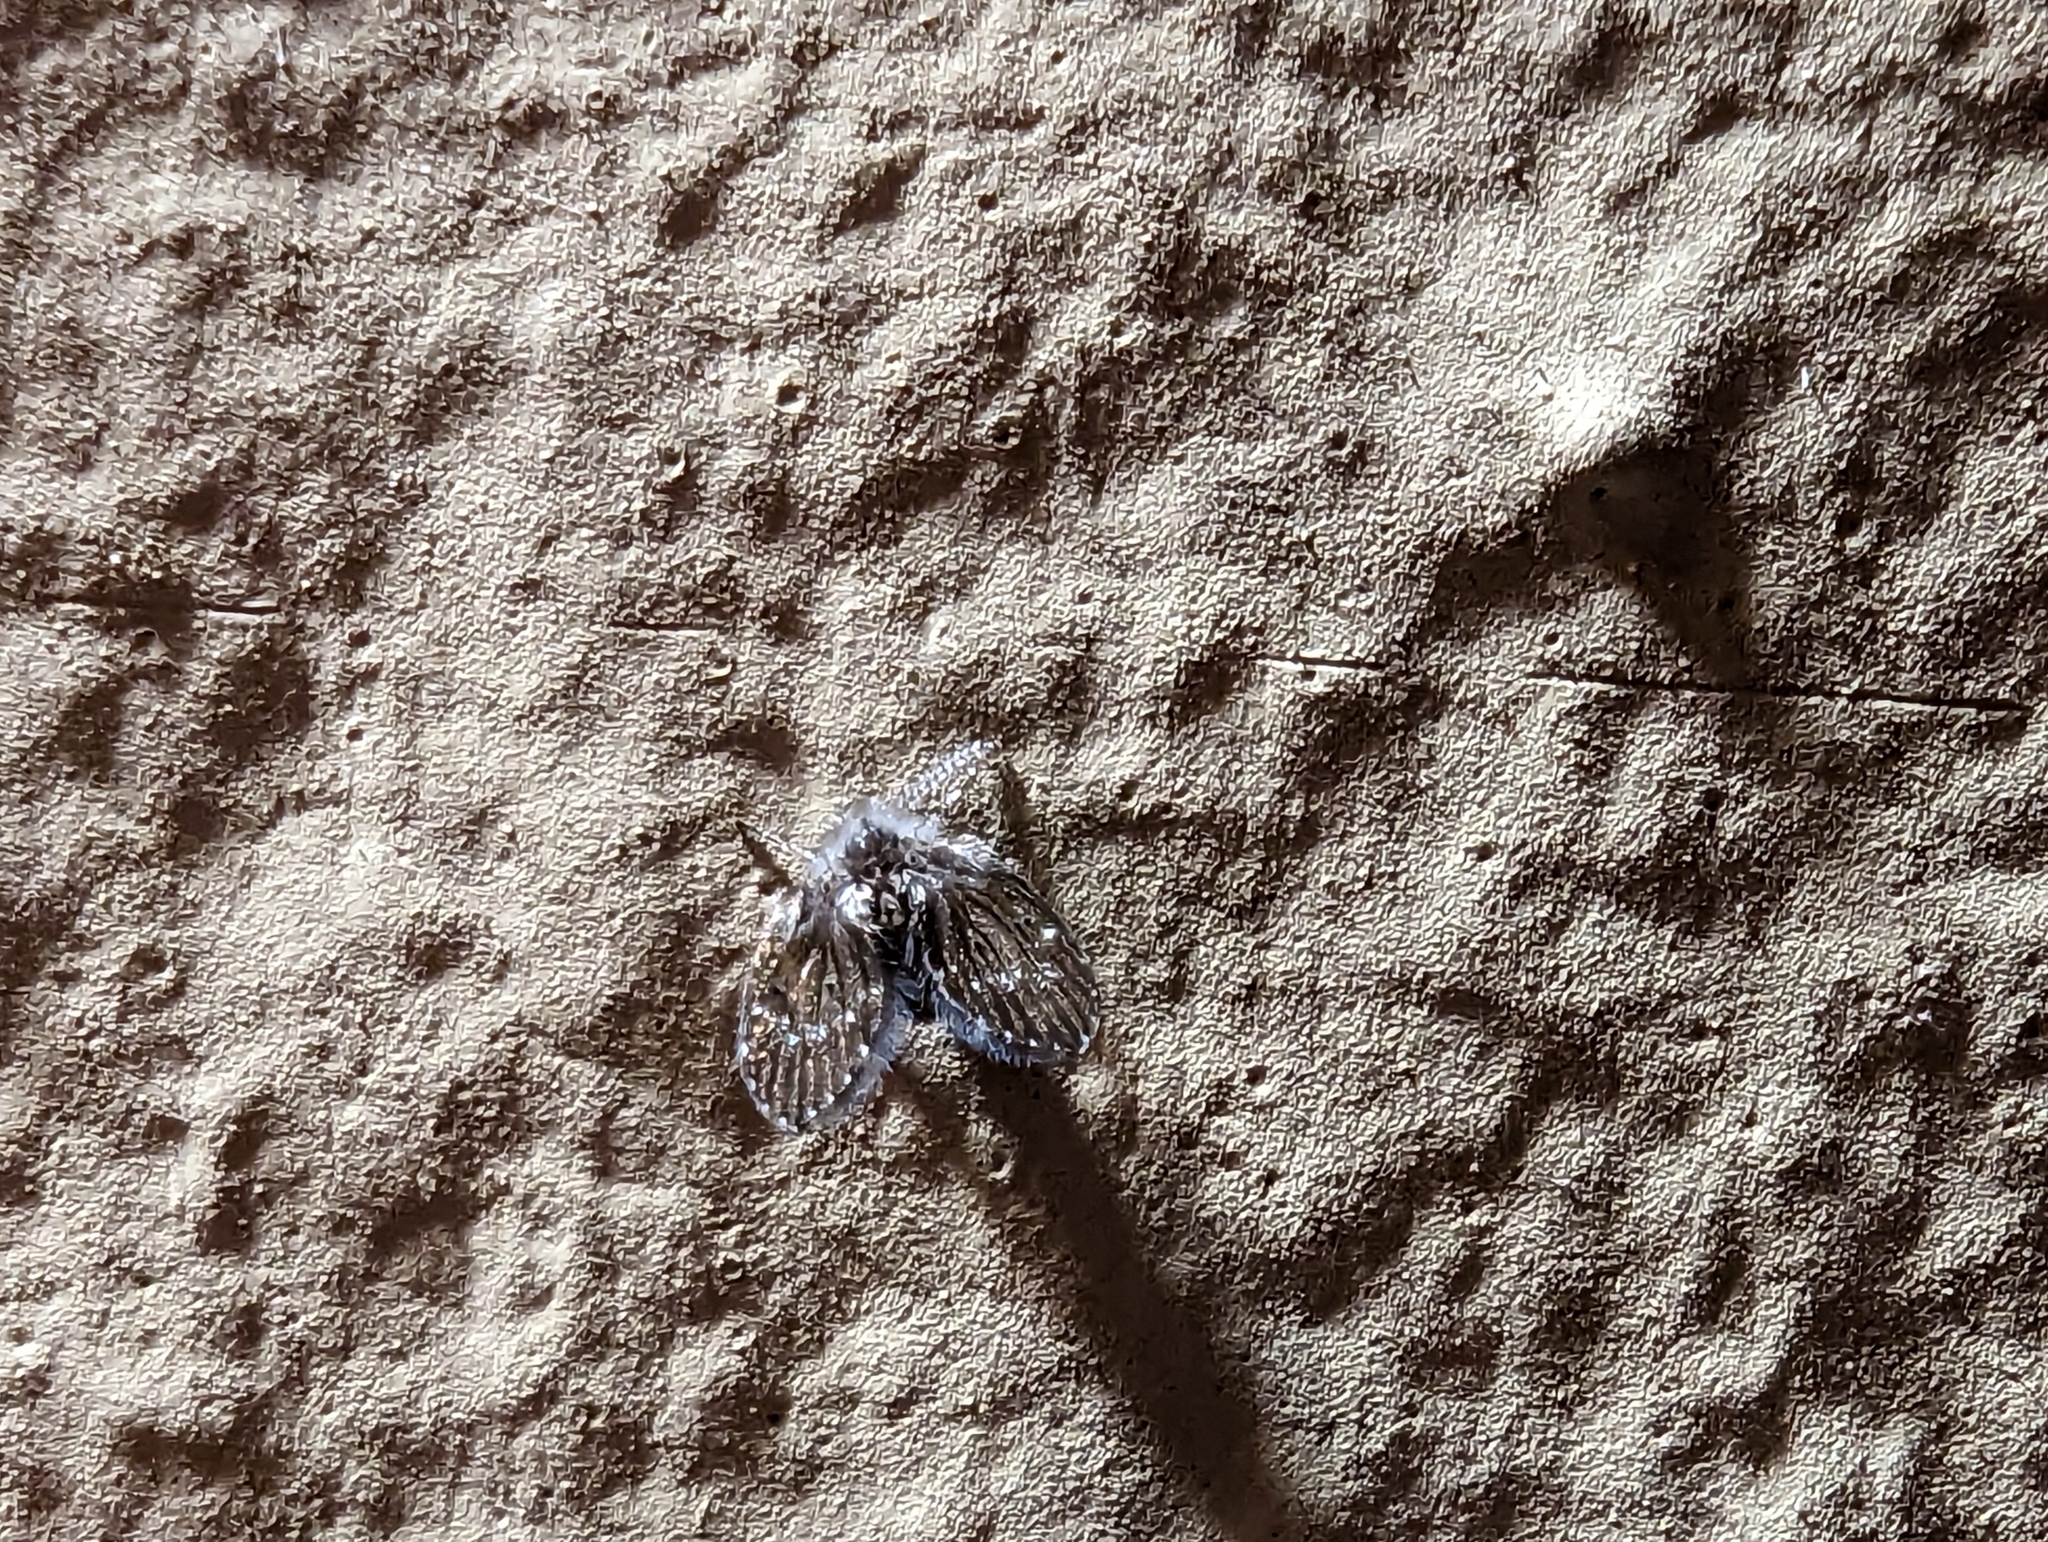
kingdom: Animalia
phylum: Arthropoda
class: Insecta
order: Diptera
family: Psychodidae
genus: Clogmia
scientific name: Clogmia albipunctatus
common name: White-spotted moth fly
